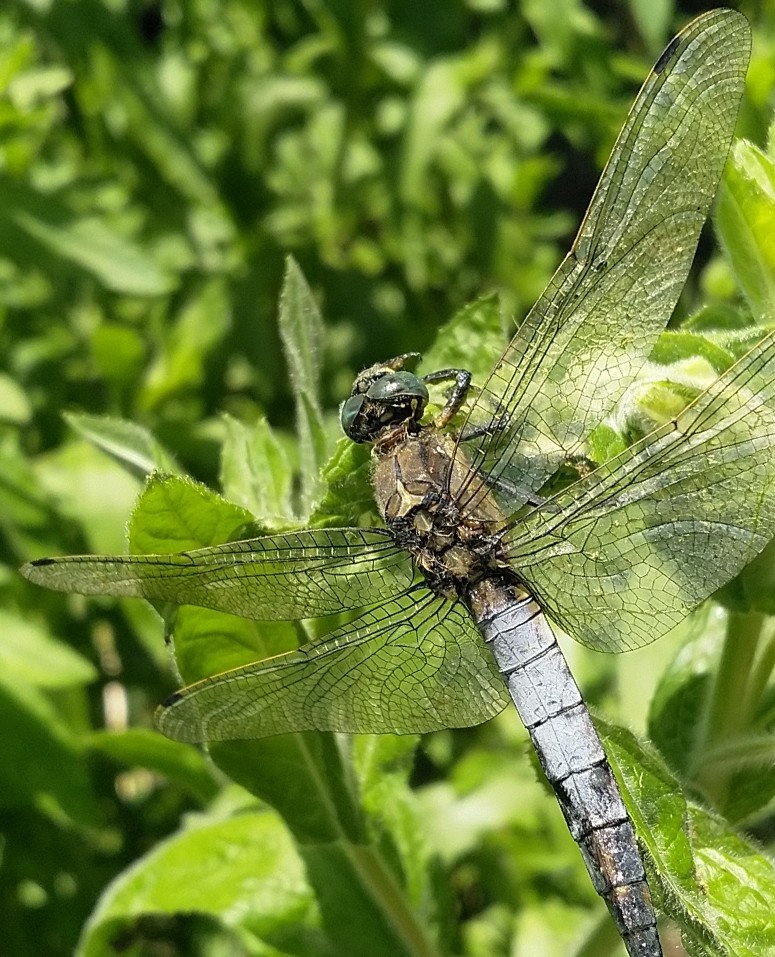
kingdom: Animalia
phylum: Arthropoda
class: Insecta
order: Odonata
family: Libellulidae
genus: Orthetrum
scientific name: Orthetrum cancellatum
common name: Black-tailed skimmer
